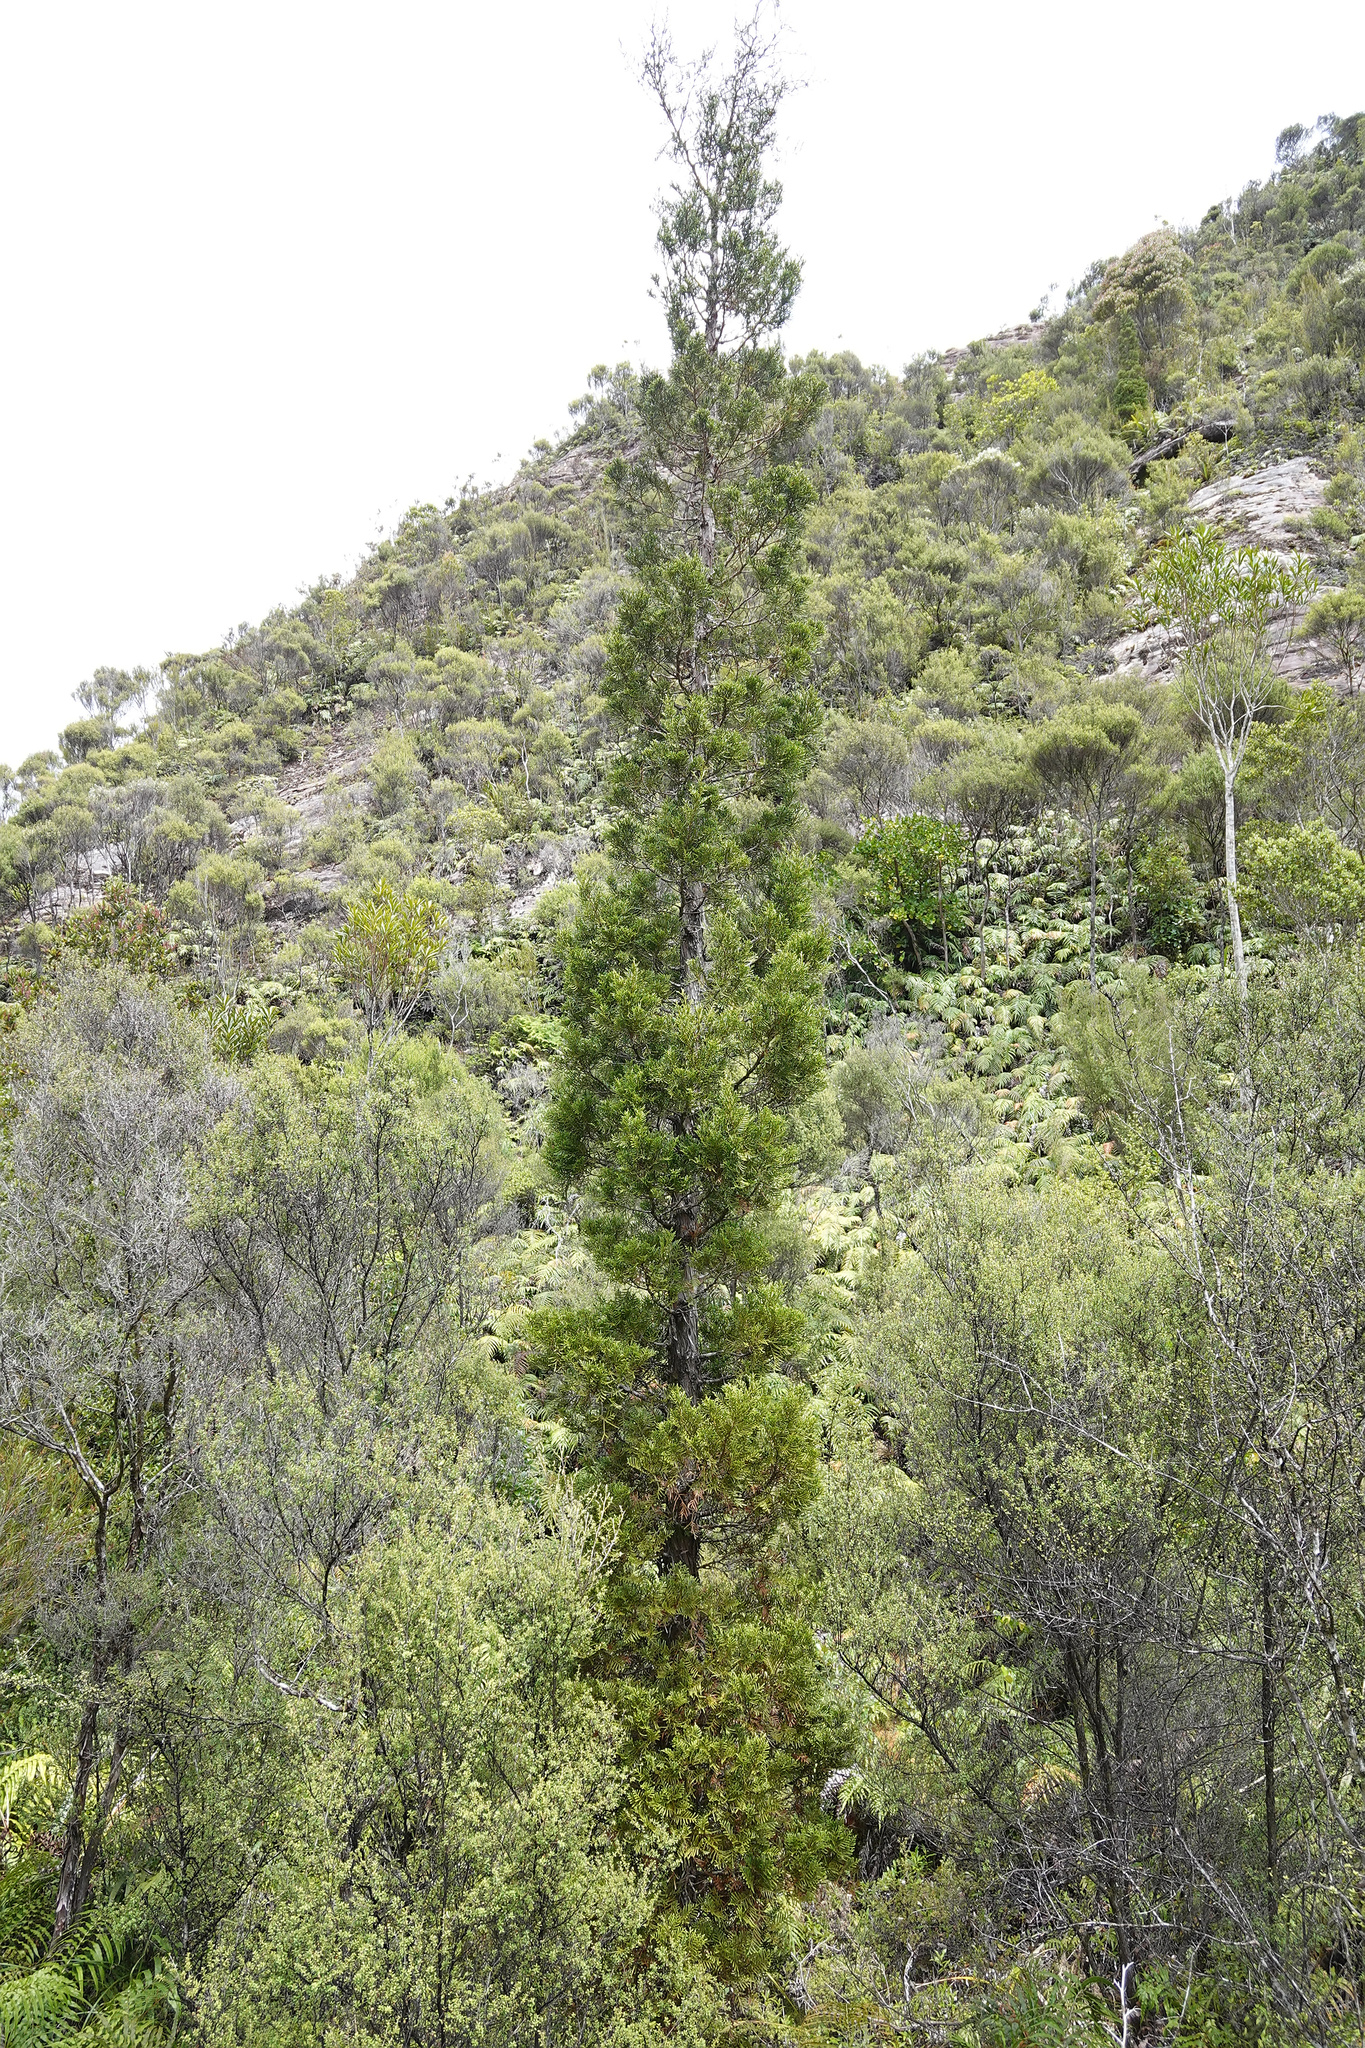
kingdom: Plantae
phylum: Tracheophyta
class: Pinopsida
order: Pinales
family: Cupressaceae
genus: Libocedrus
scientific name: Libocedrus bidwillii
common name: Cedar
